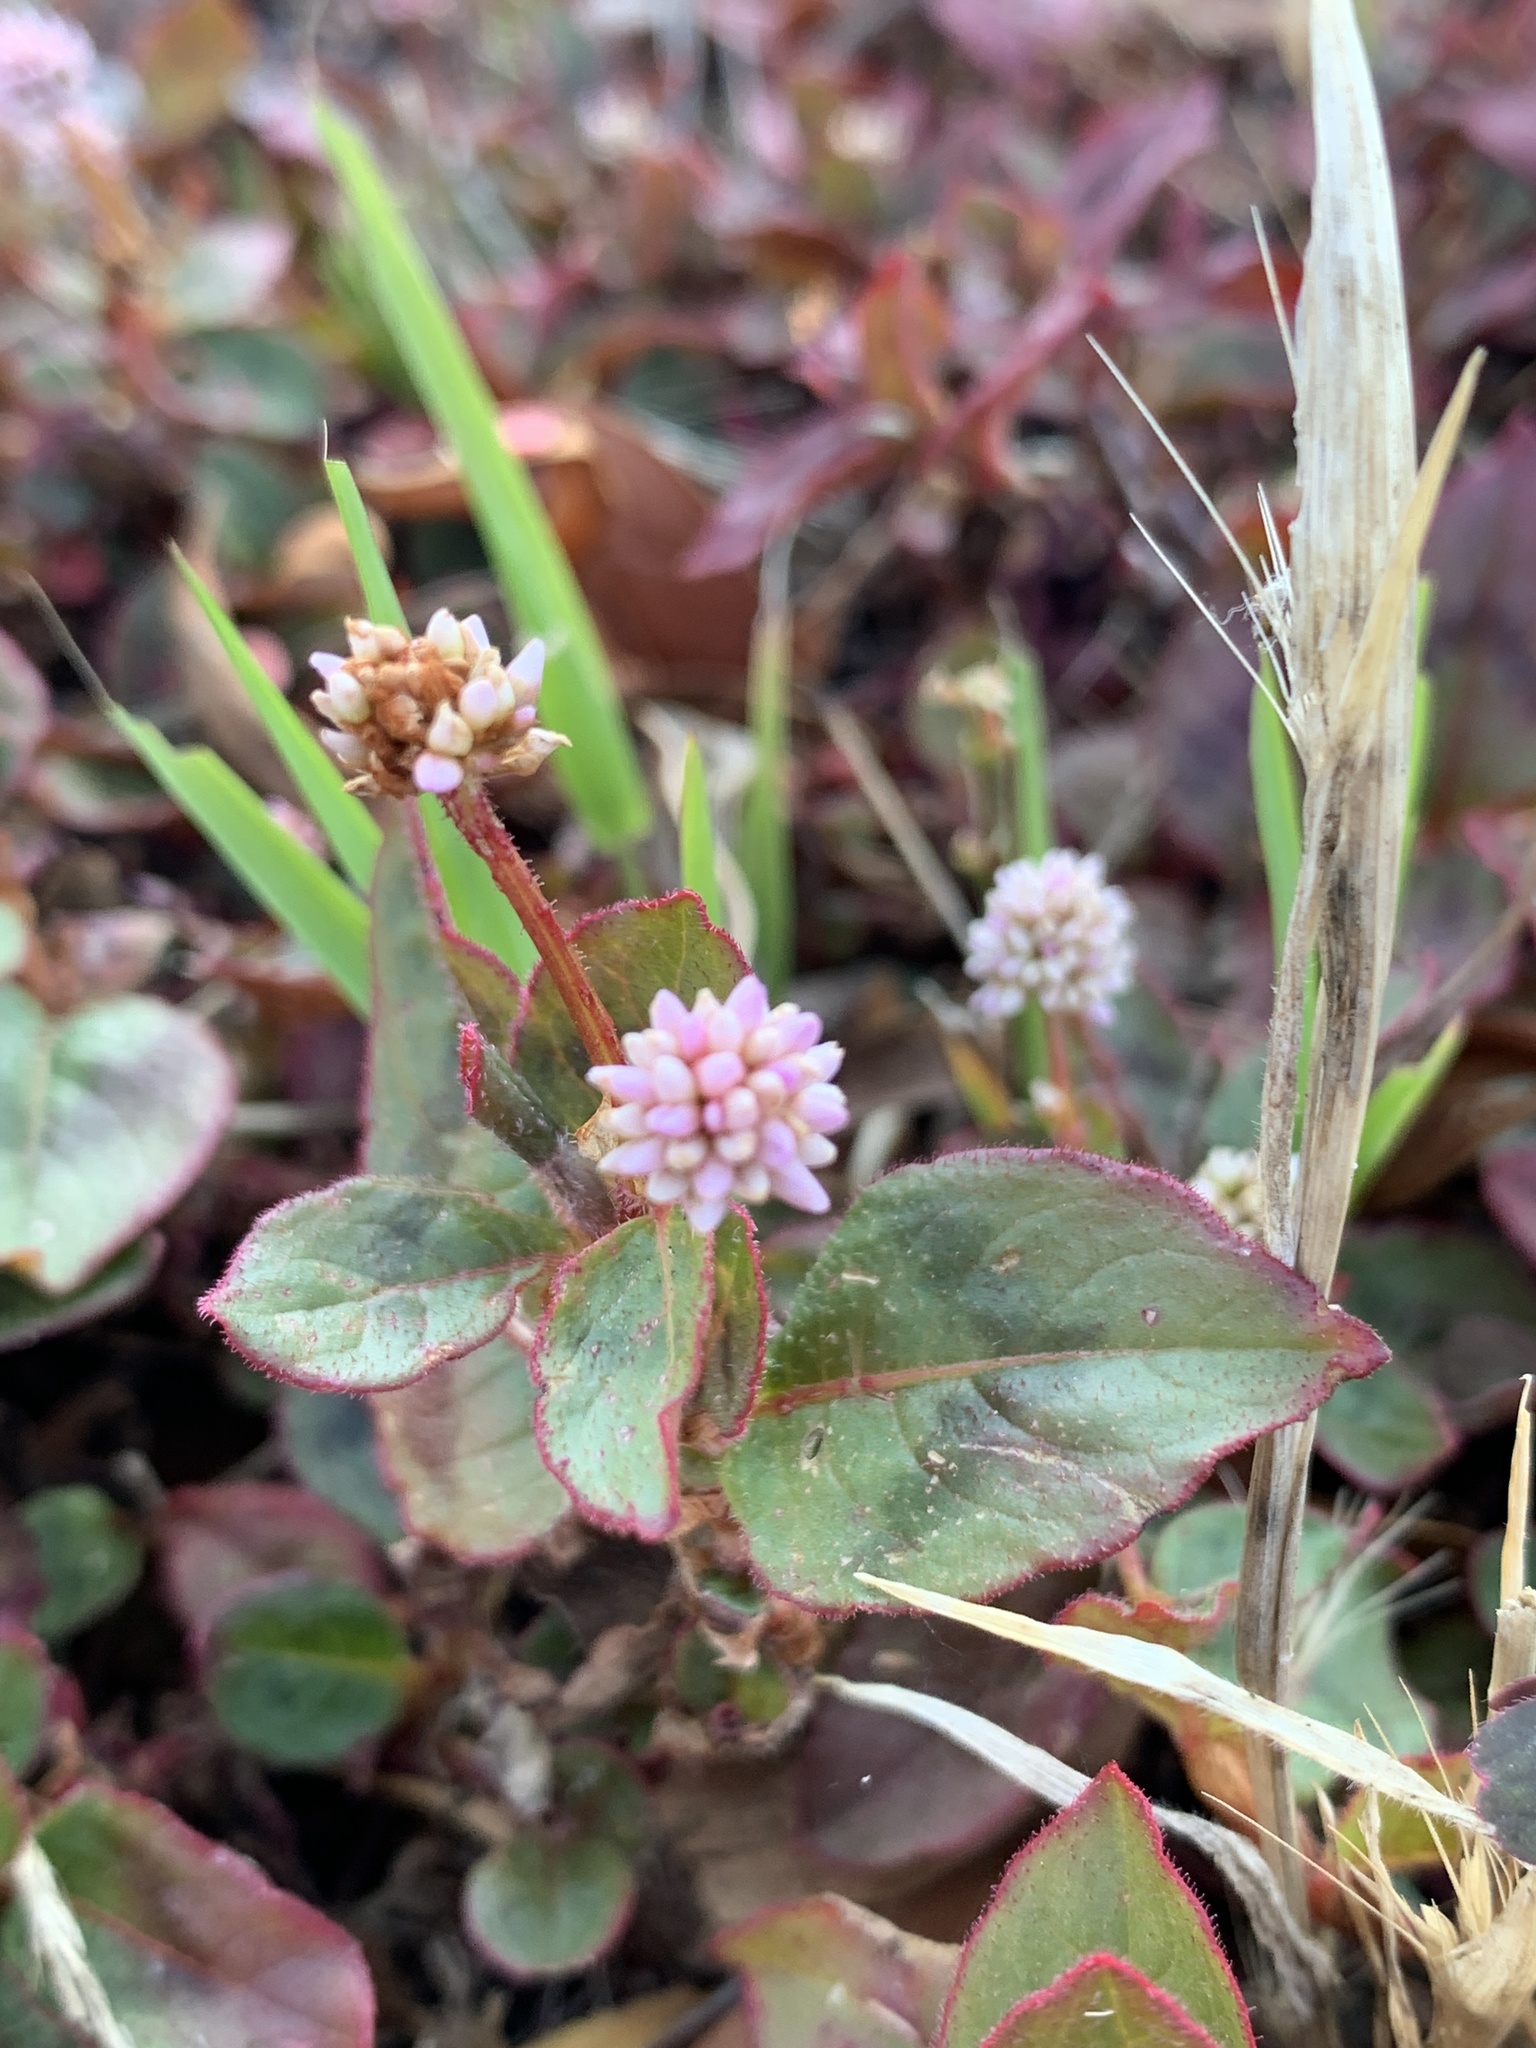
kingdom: Plantae
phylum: Tracheophyta
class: Magnoliopsida
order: Caryophyllales
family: Polygonaceae
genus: Persicaria
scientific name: Persicaria capitata
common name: Pinkhead smartweed
